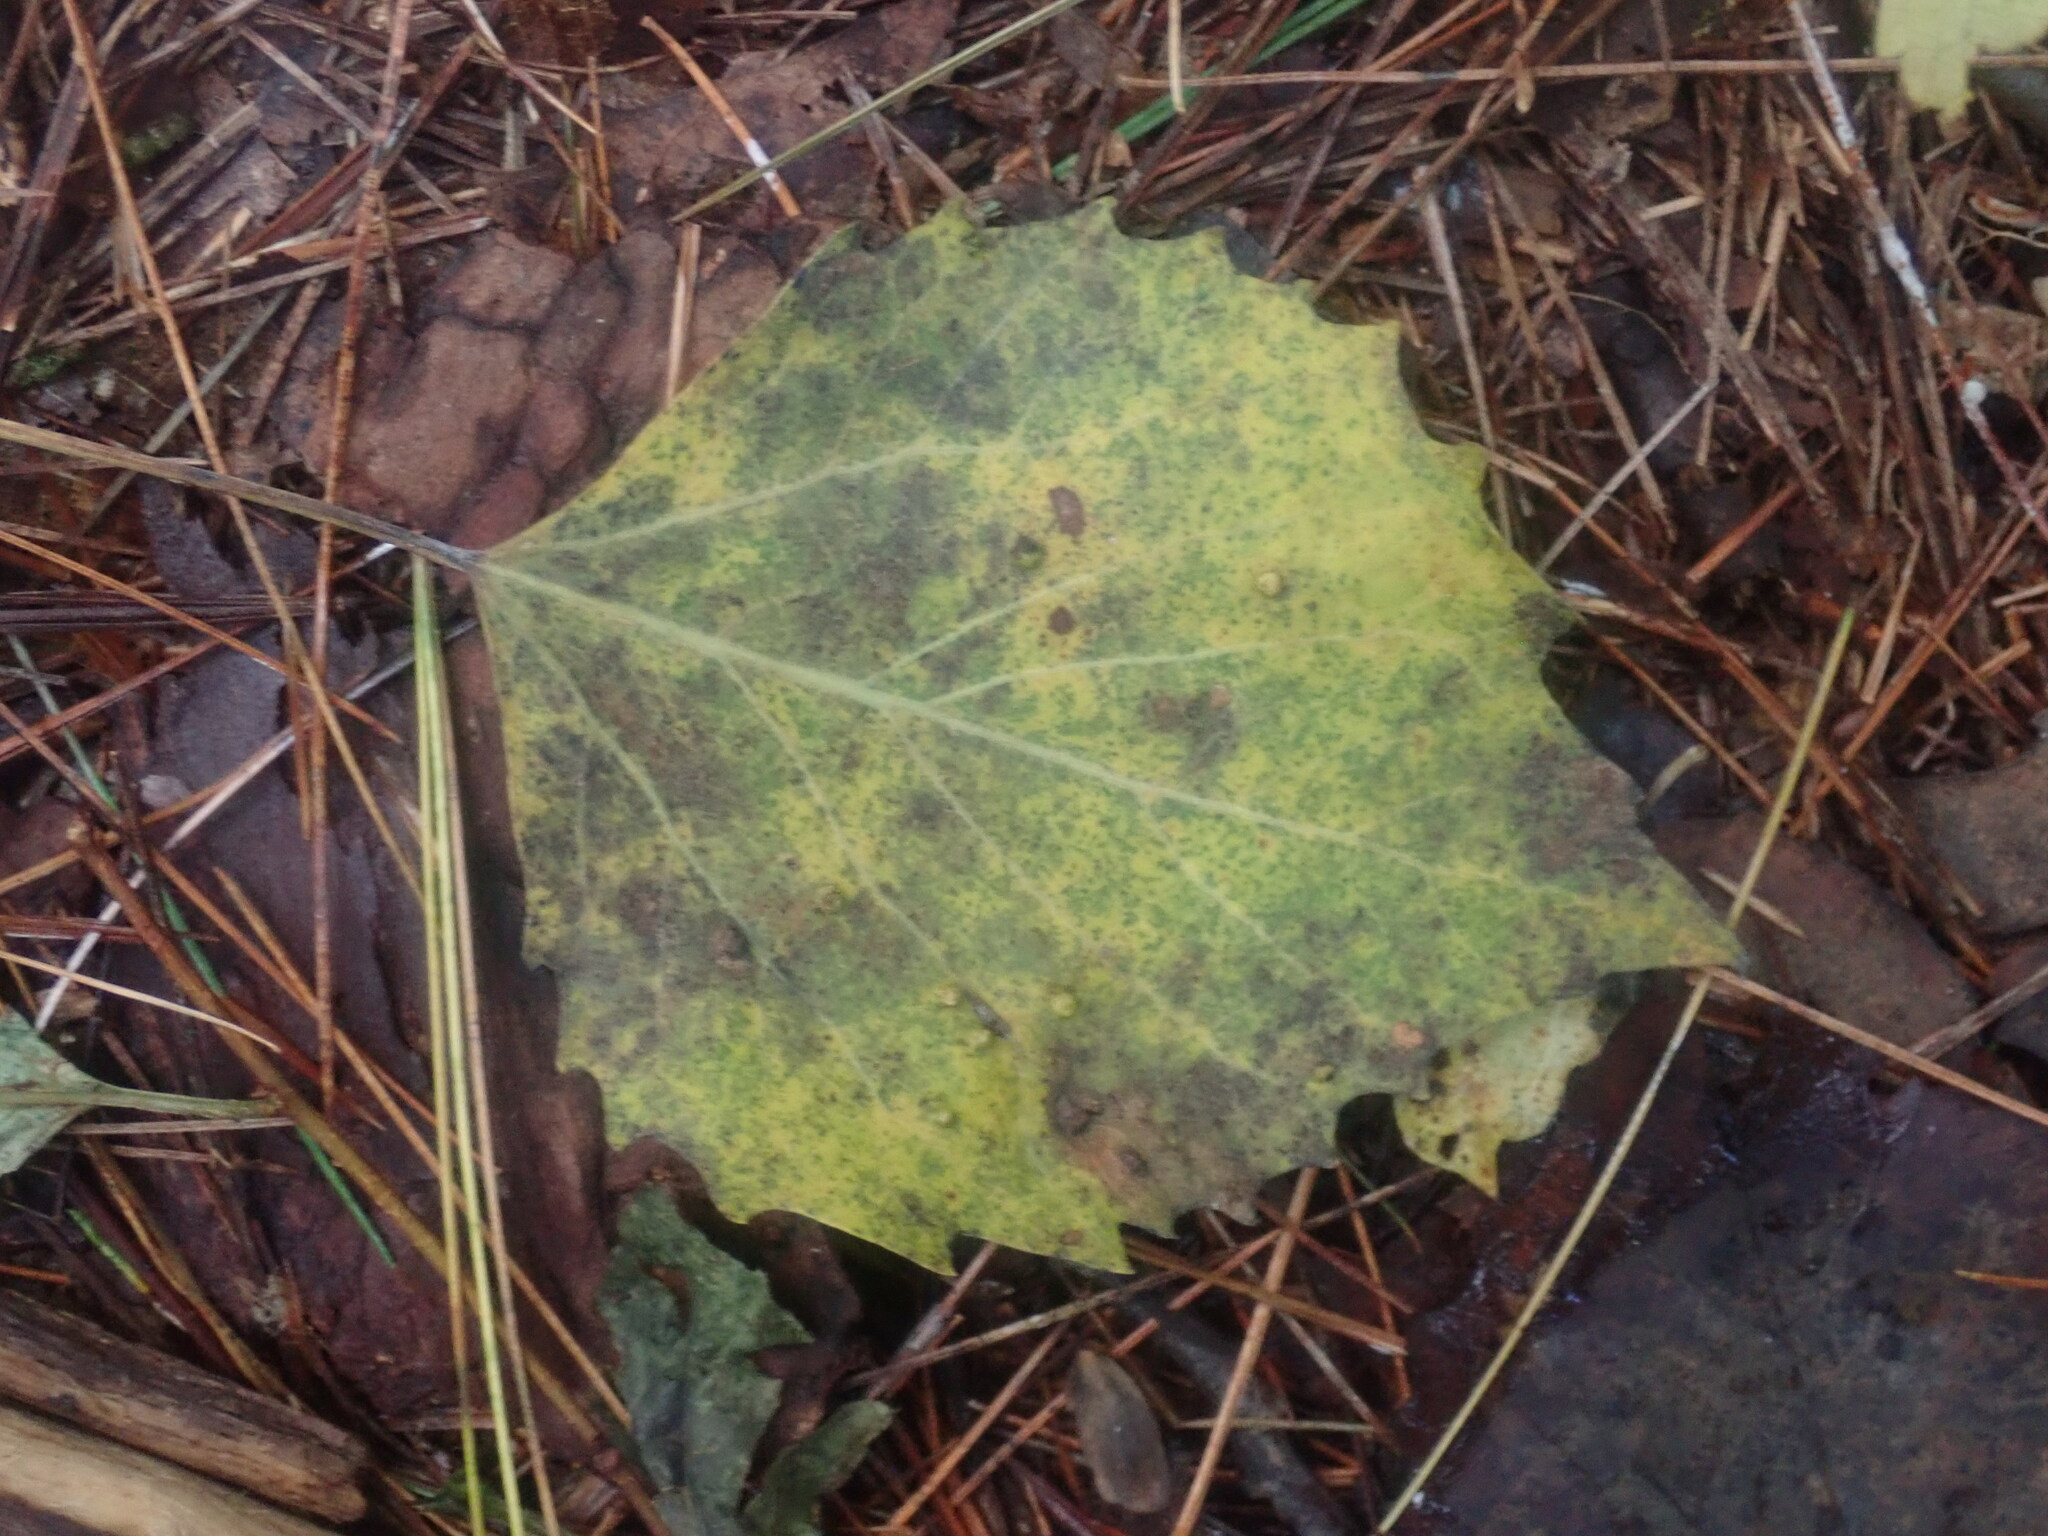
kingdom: Plantae
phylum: Tracheophyta
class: Magnoliopsida
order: Malpighiales
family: Salicaceae
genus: Populus
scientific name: Populus grandidentata
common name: Bigtooth aspen
